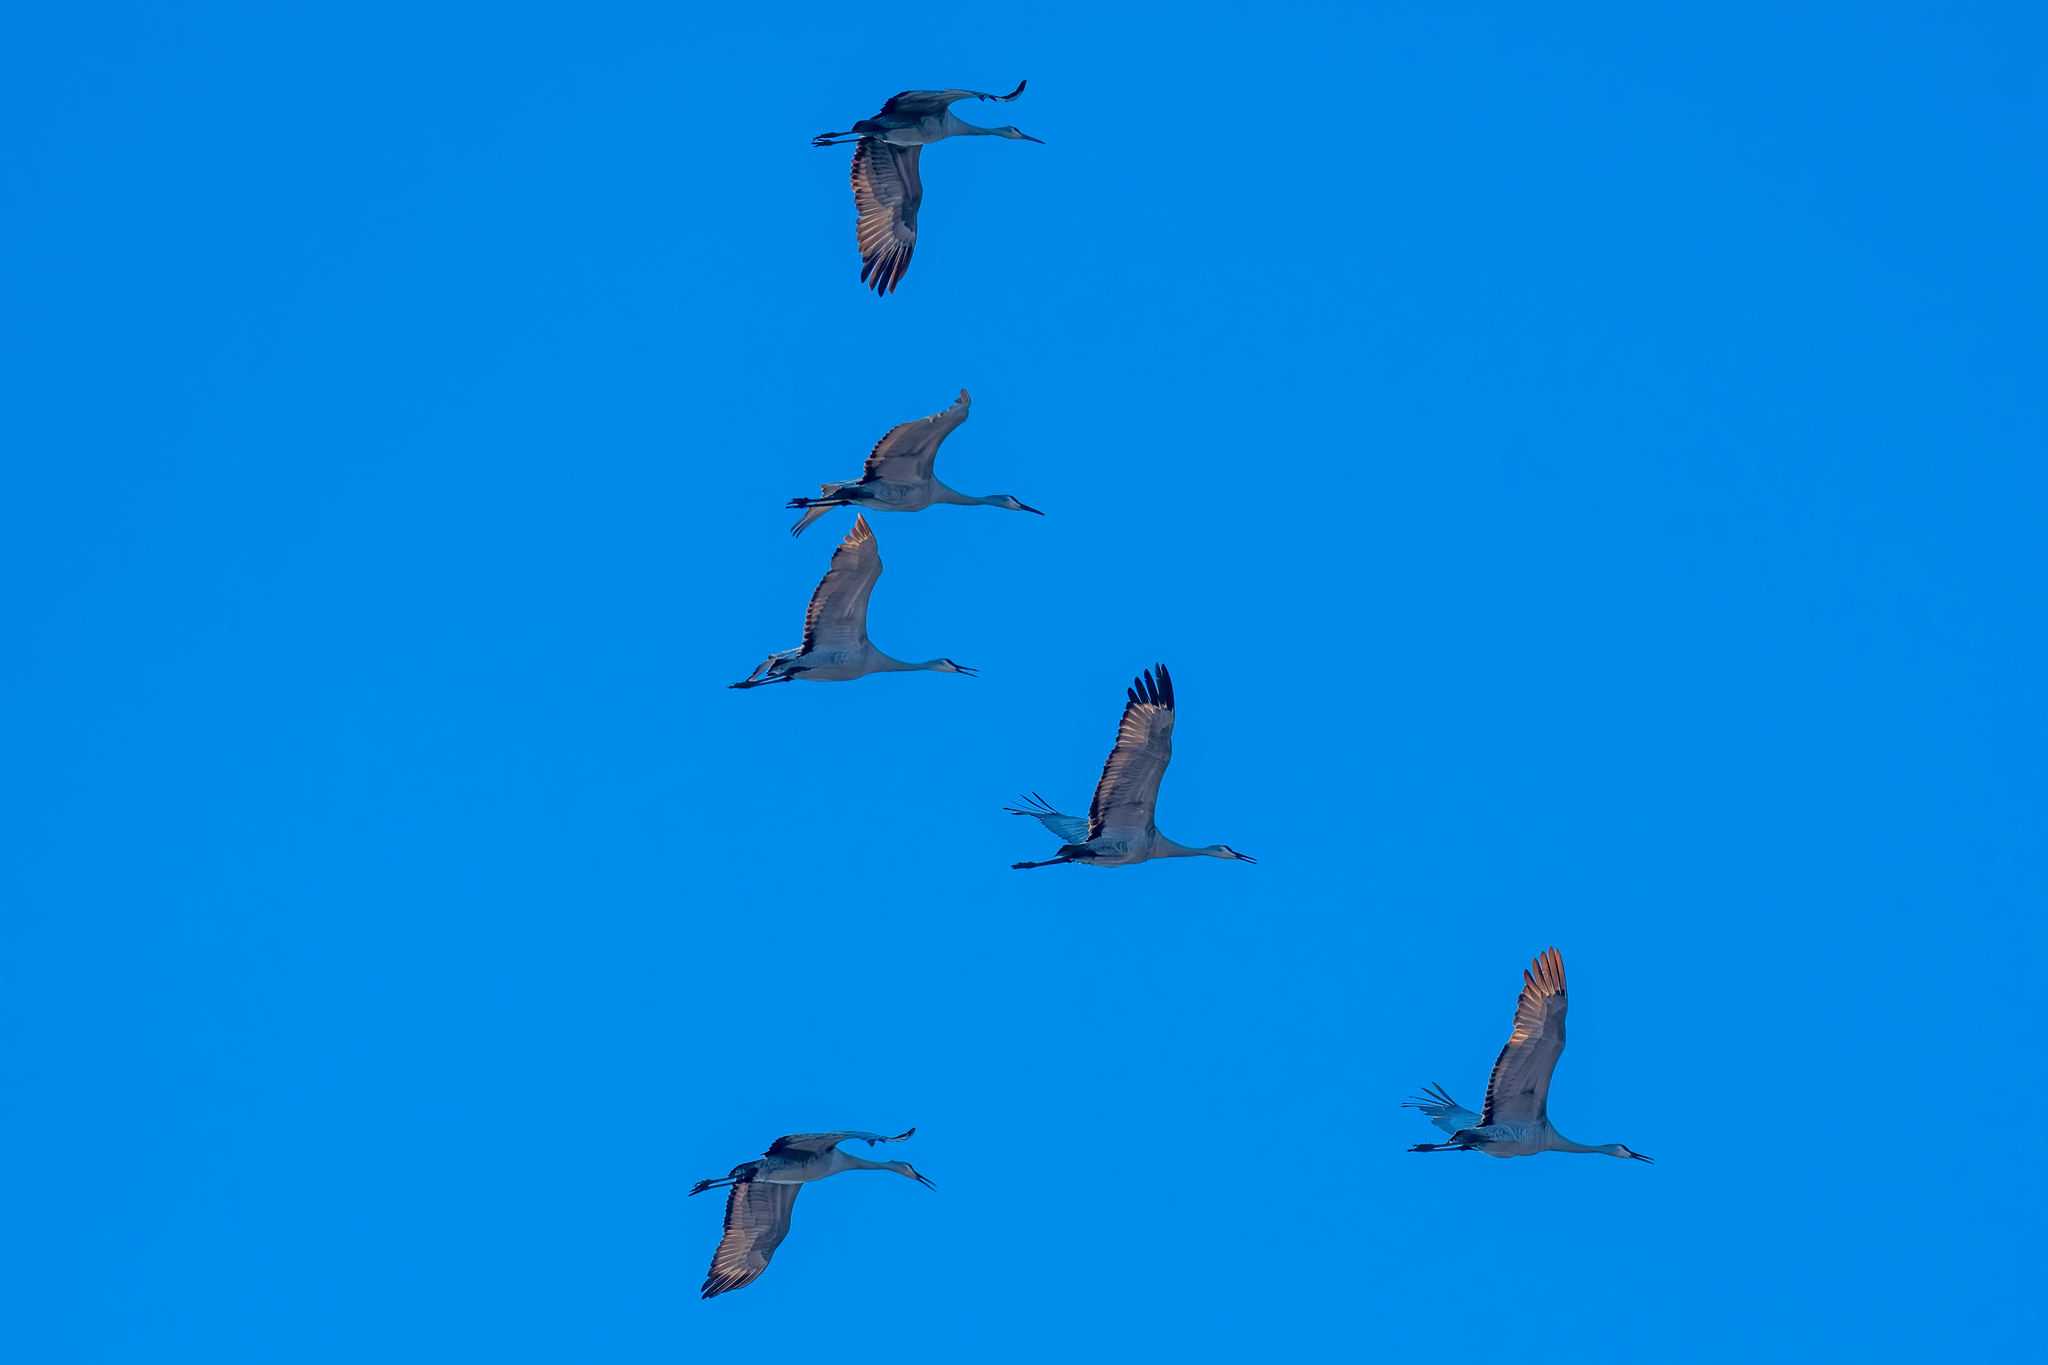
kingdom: Animalia
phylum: Chordata
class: Aves
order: Gruiformes
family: Gruidae
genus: Grus
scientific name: Grus canadensis
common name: Sandhill crane
